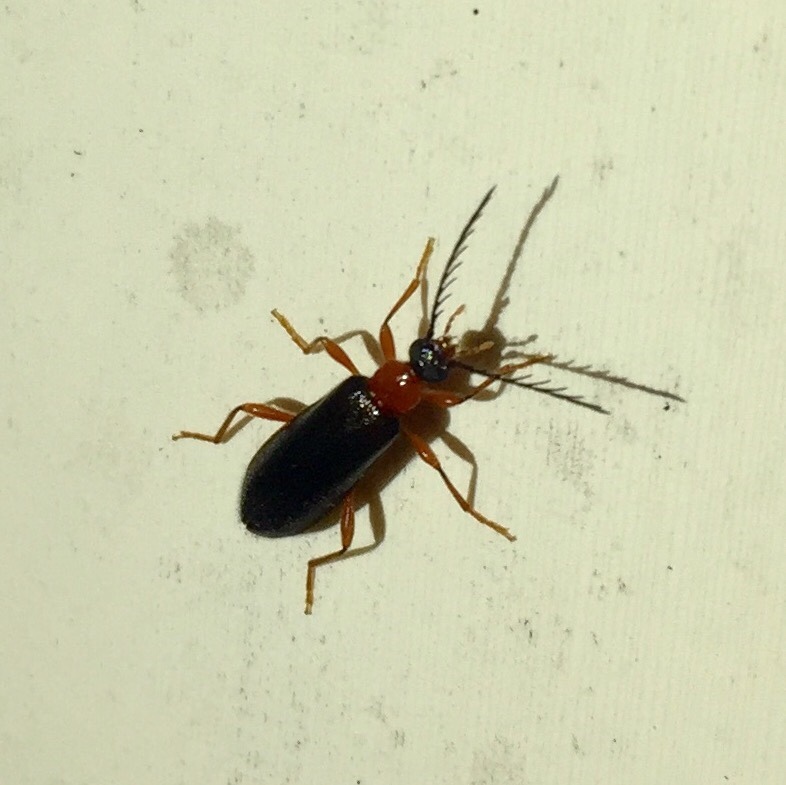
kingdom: Animalia
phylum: Arthropoda
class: Insecta
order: Coleoptera
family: Pyrochroidae
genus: Dendroides
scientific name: Dendroides canadensis
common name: Canada fire-colored beetle
